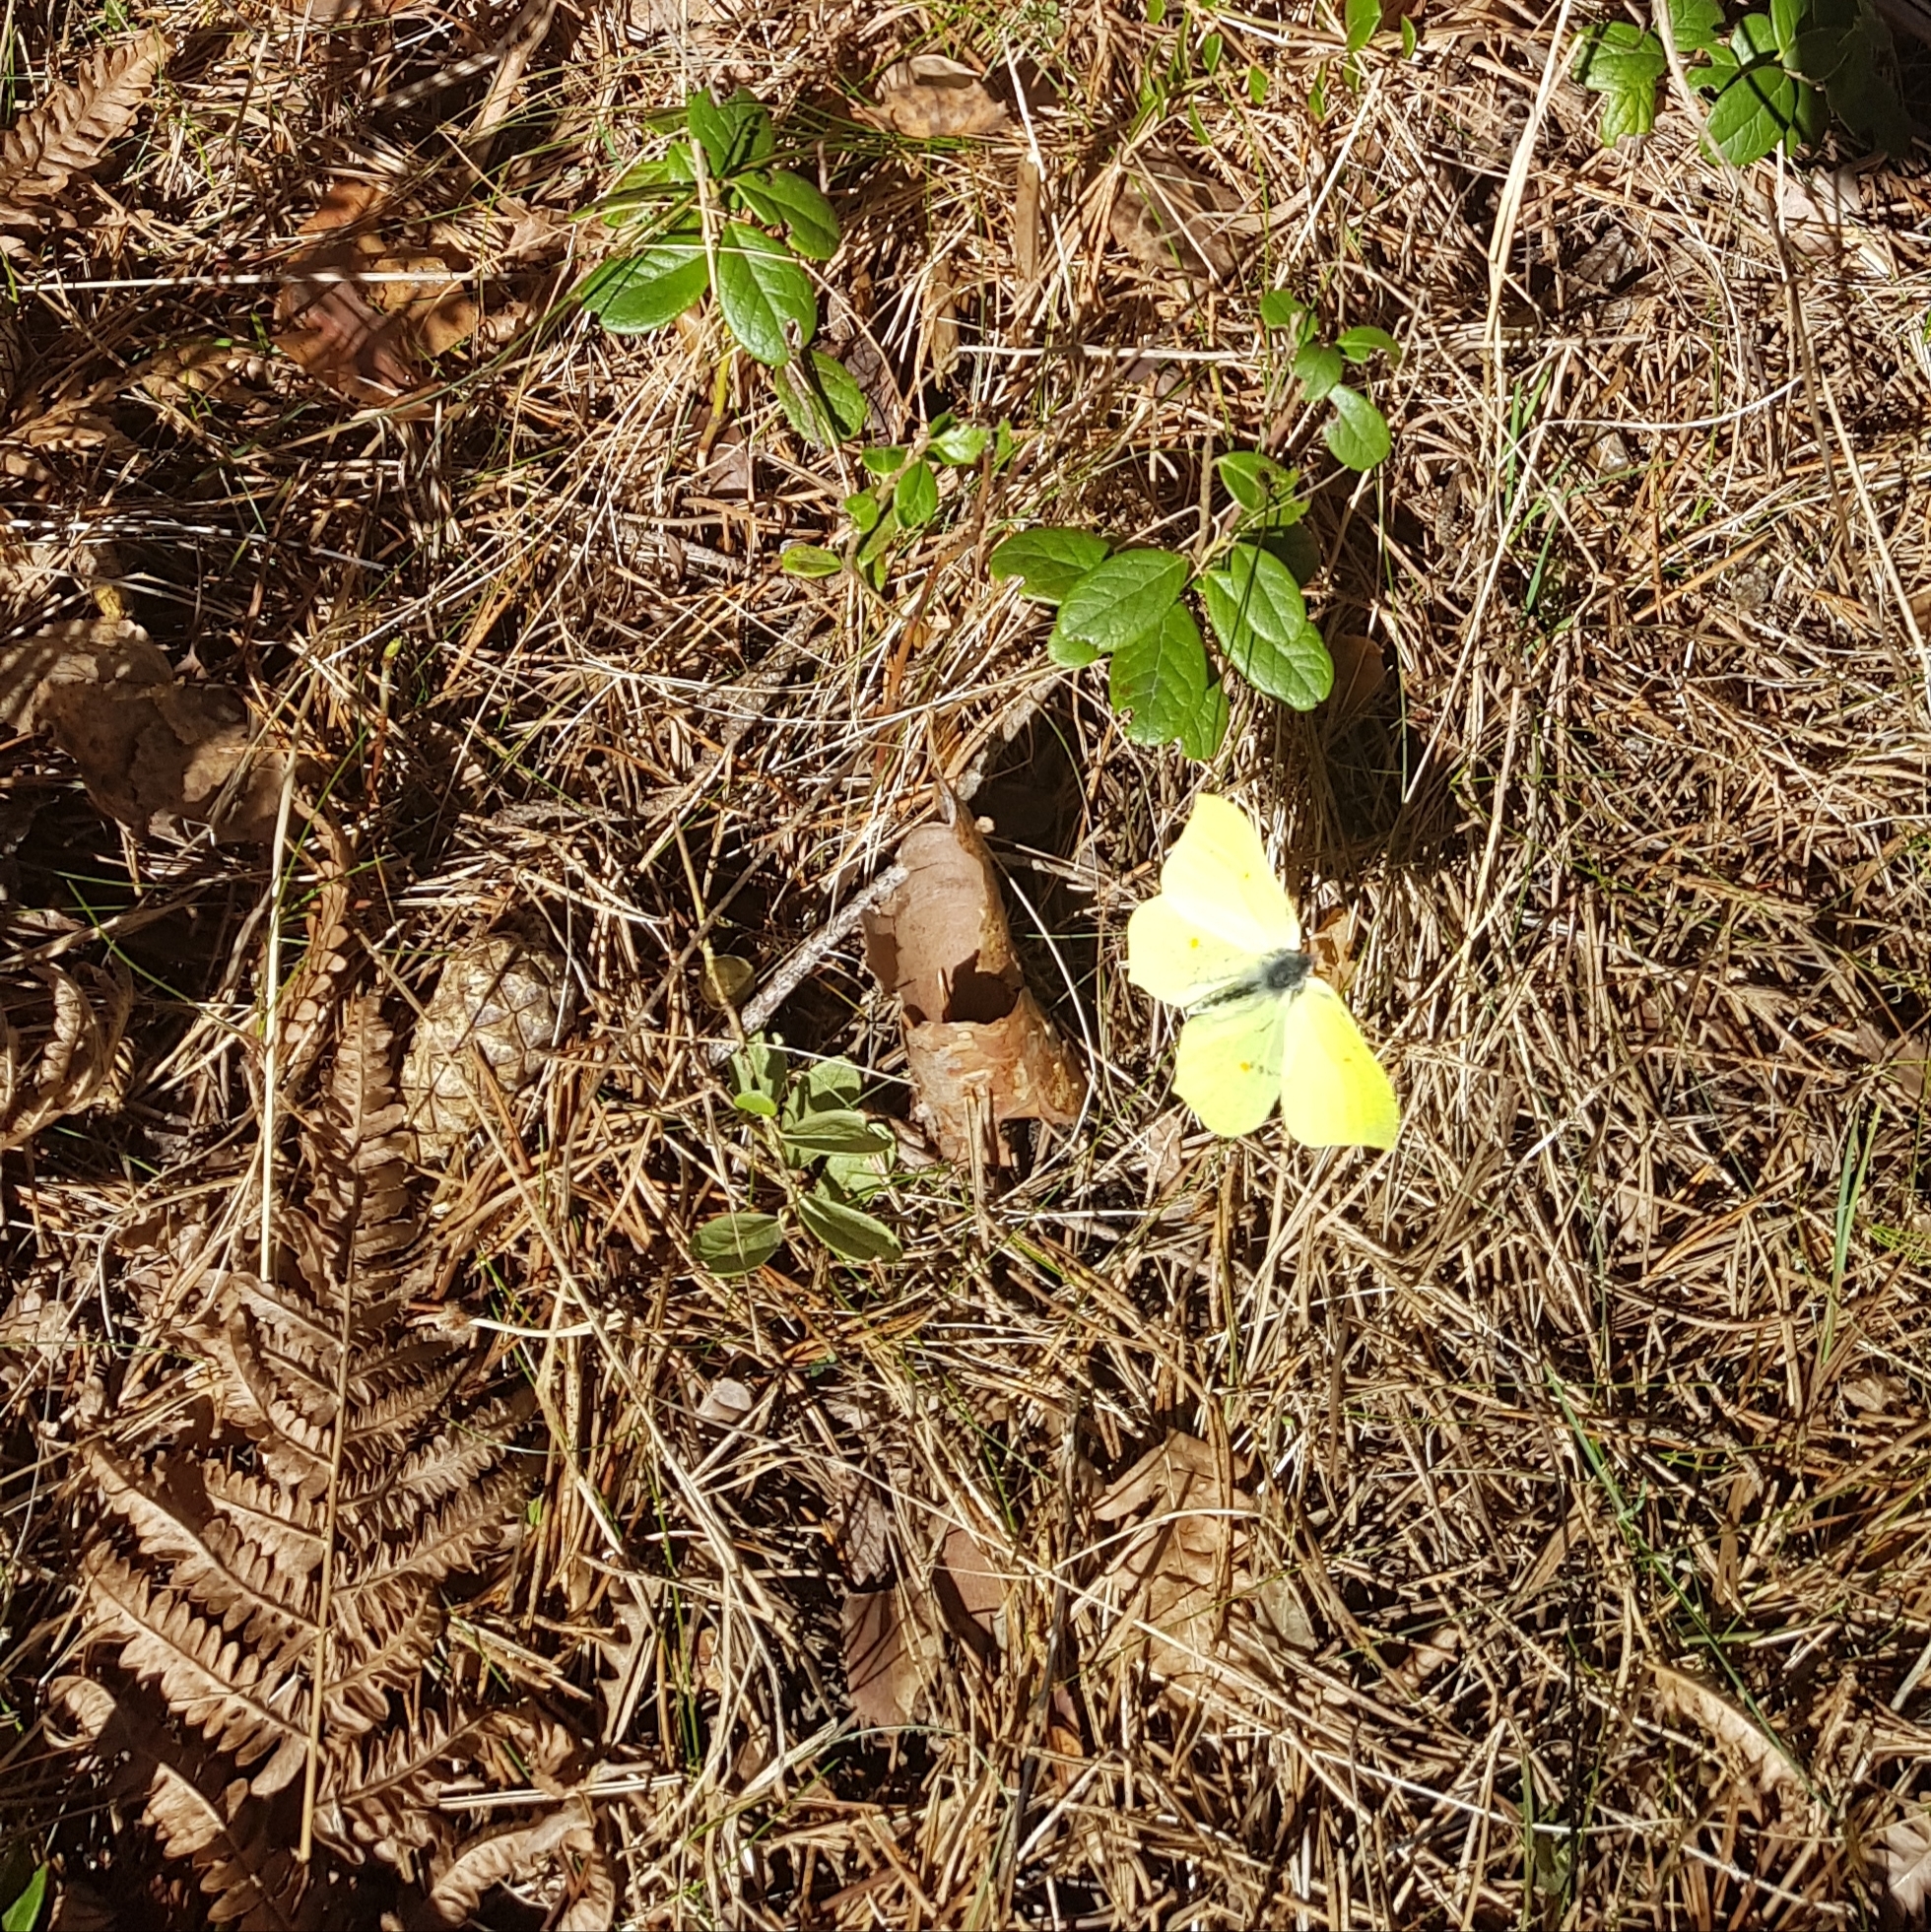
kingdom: Animalia
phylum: Arthropoda
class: Insecta
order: Lepidoptera
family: Pieridae
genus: Gonepteryx
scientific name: Gonepteryx rhamni
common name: Brimstone
